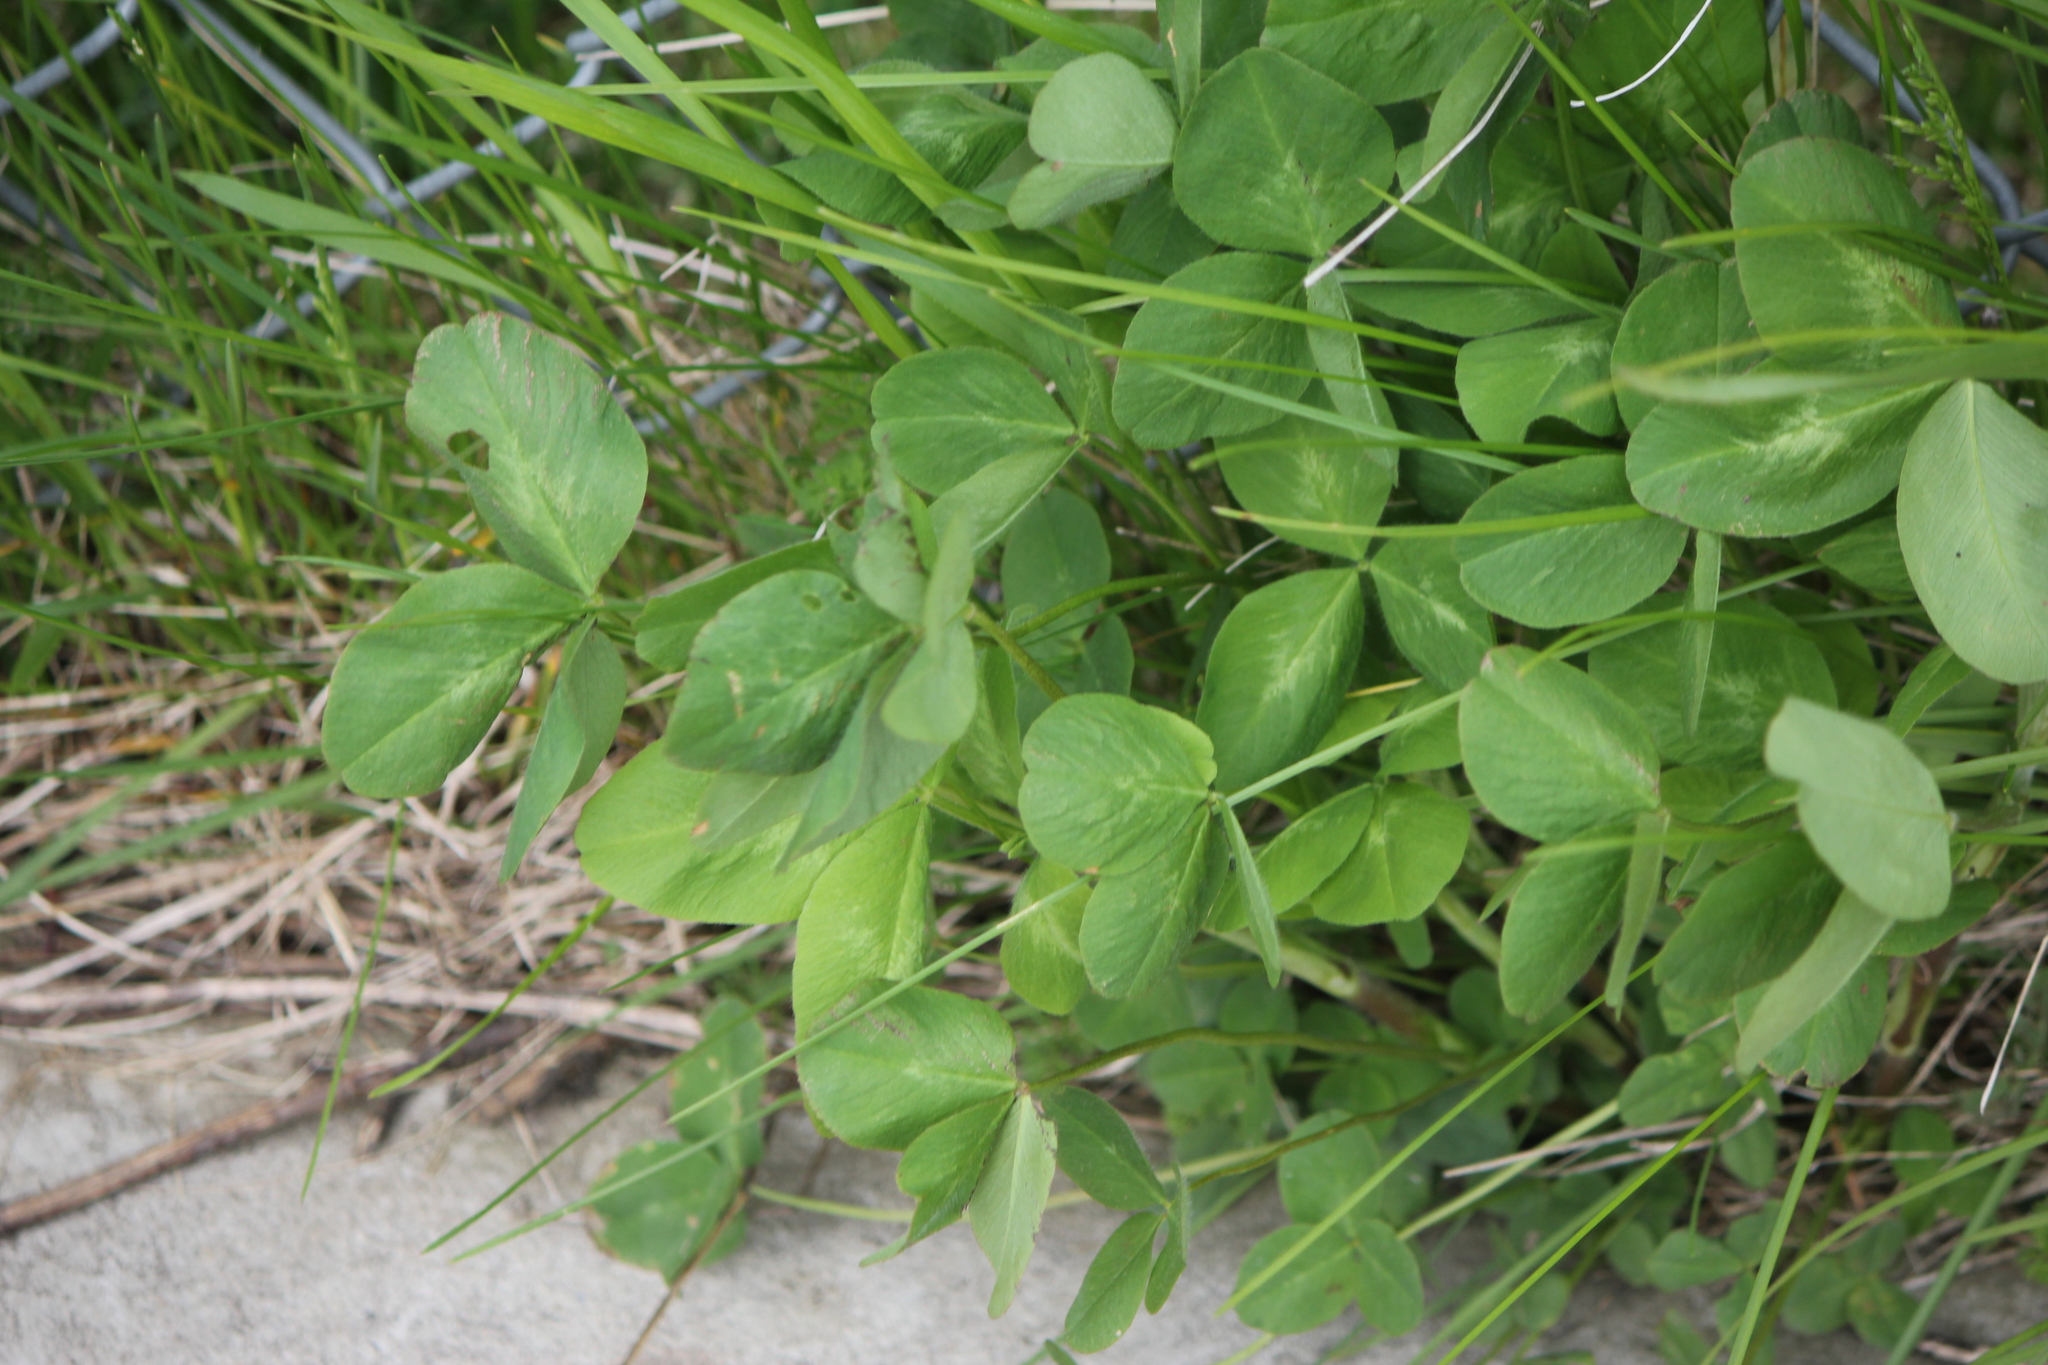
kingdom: Plantae
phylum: Tracheophyta
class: Magnoliopsida
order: Fabales
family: Fabaceae
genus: Trifolium
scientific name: Trifolium pratense
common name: Red clover
